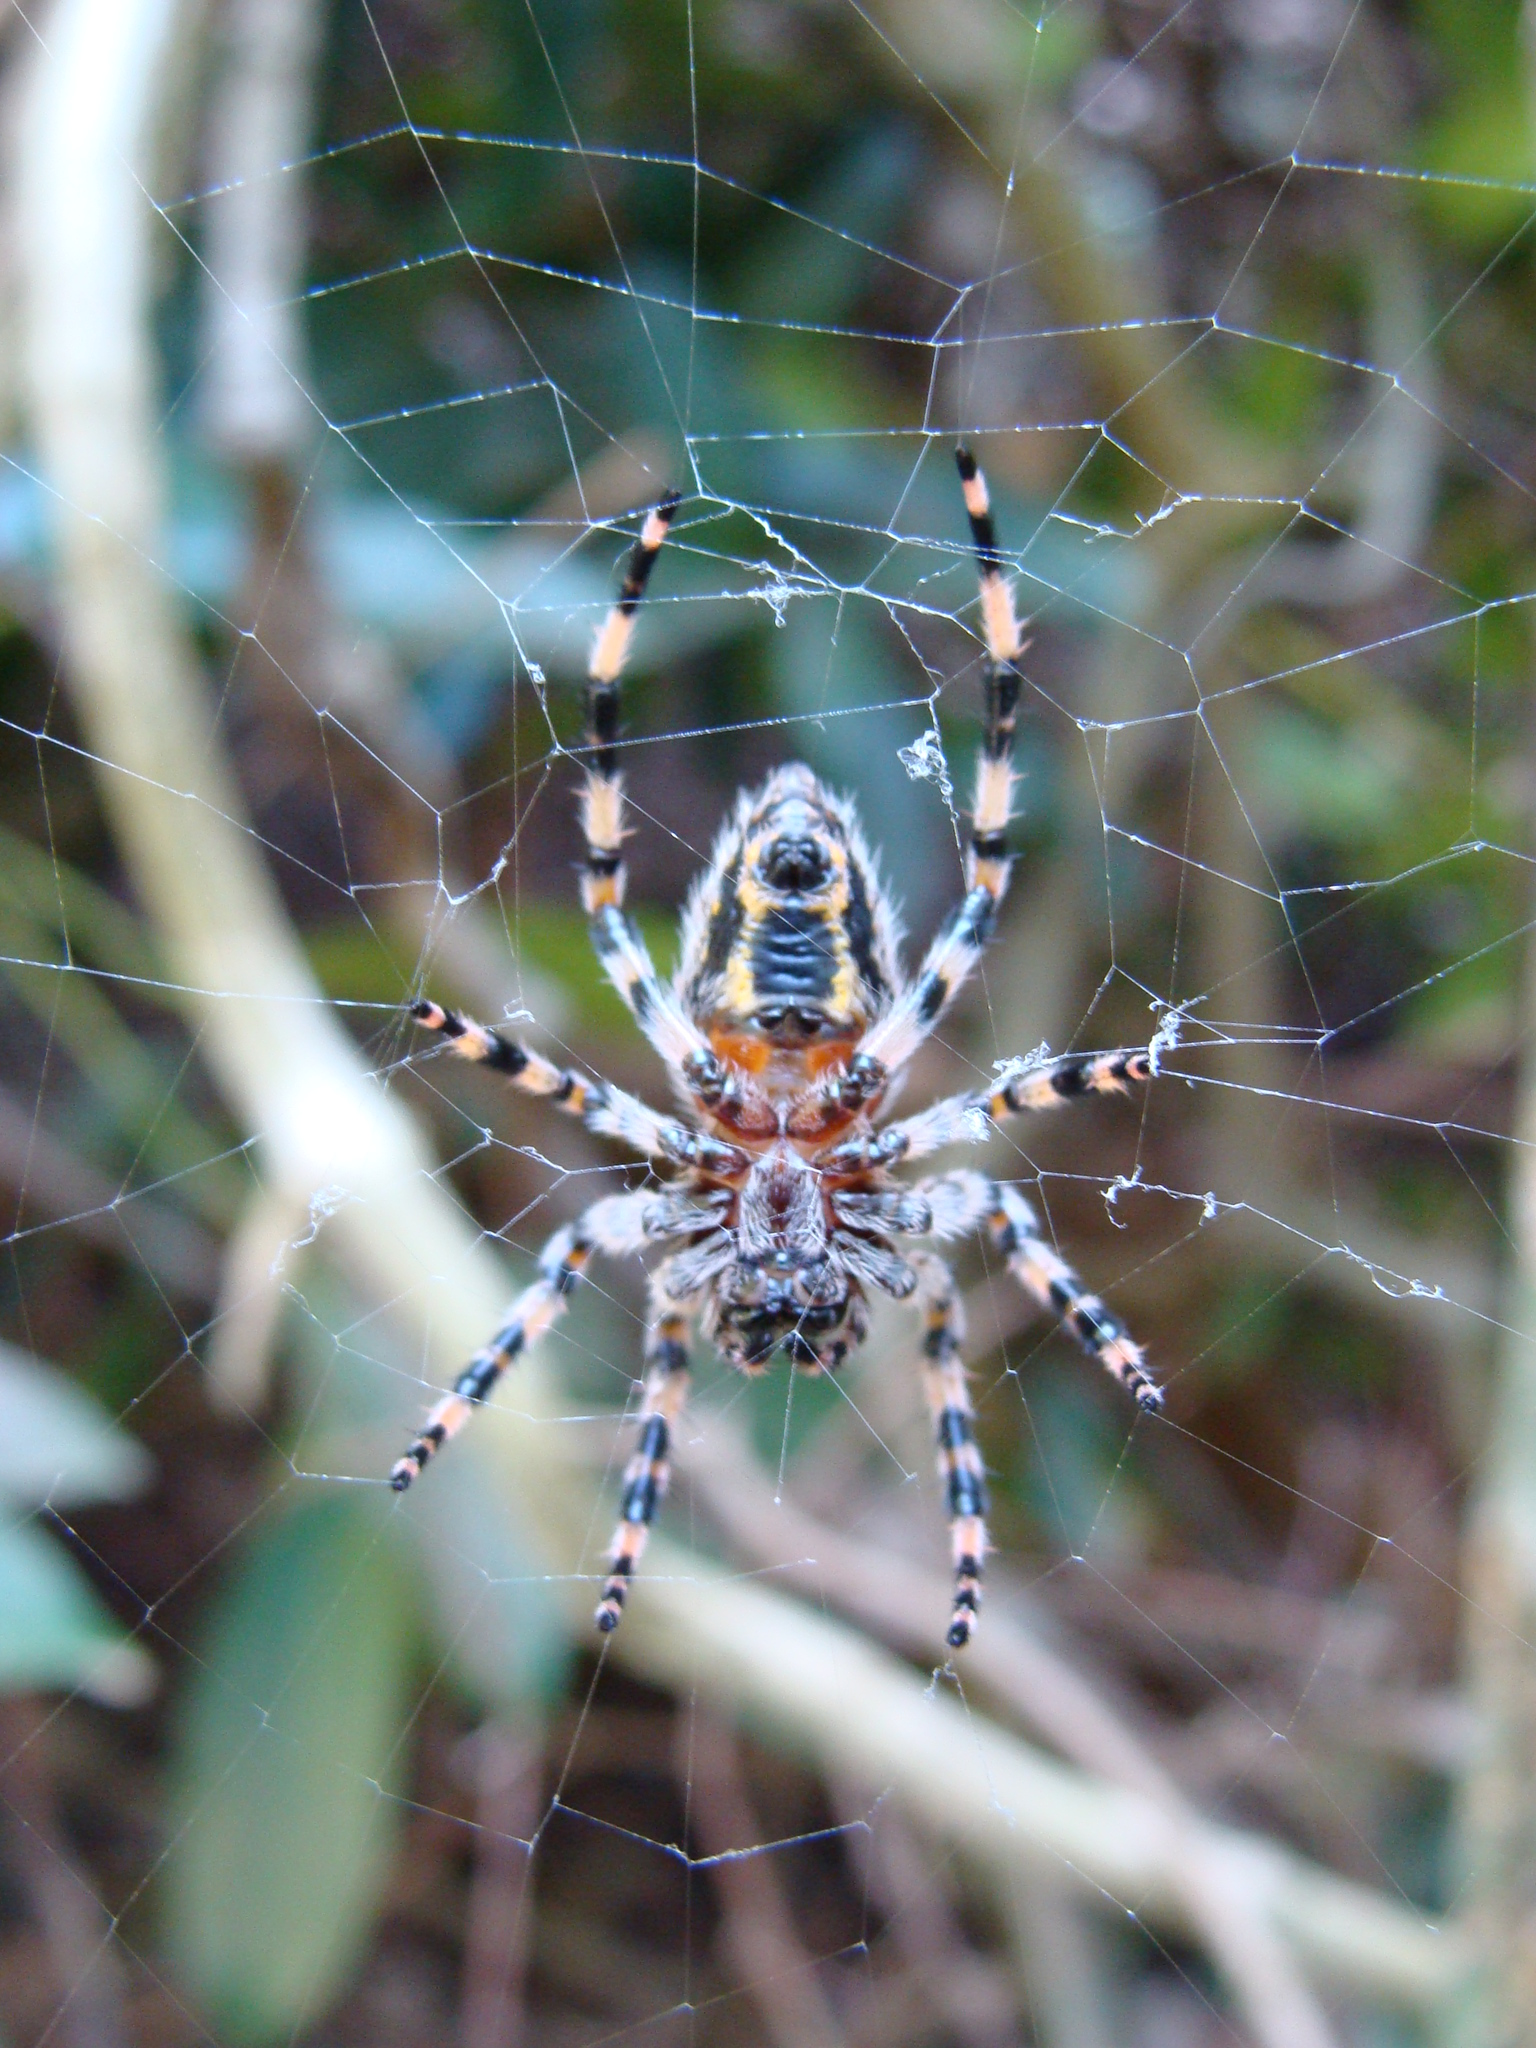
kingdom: Animalia
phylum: Arthropoda
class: Arachnida
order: Araneae
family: Araneidae
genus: Alpaida
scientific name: Alpaida alticeps
